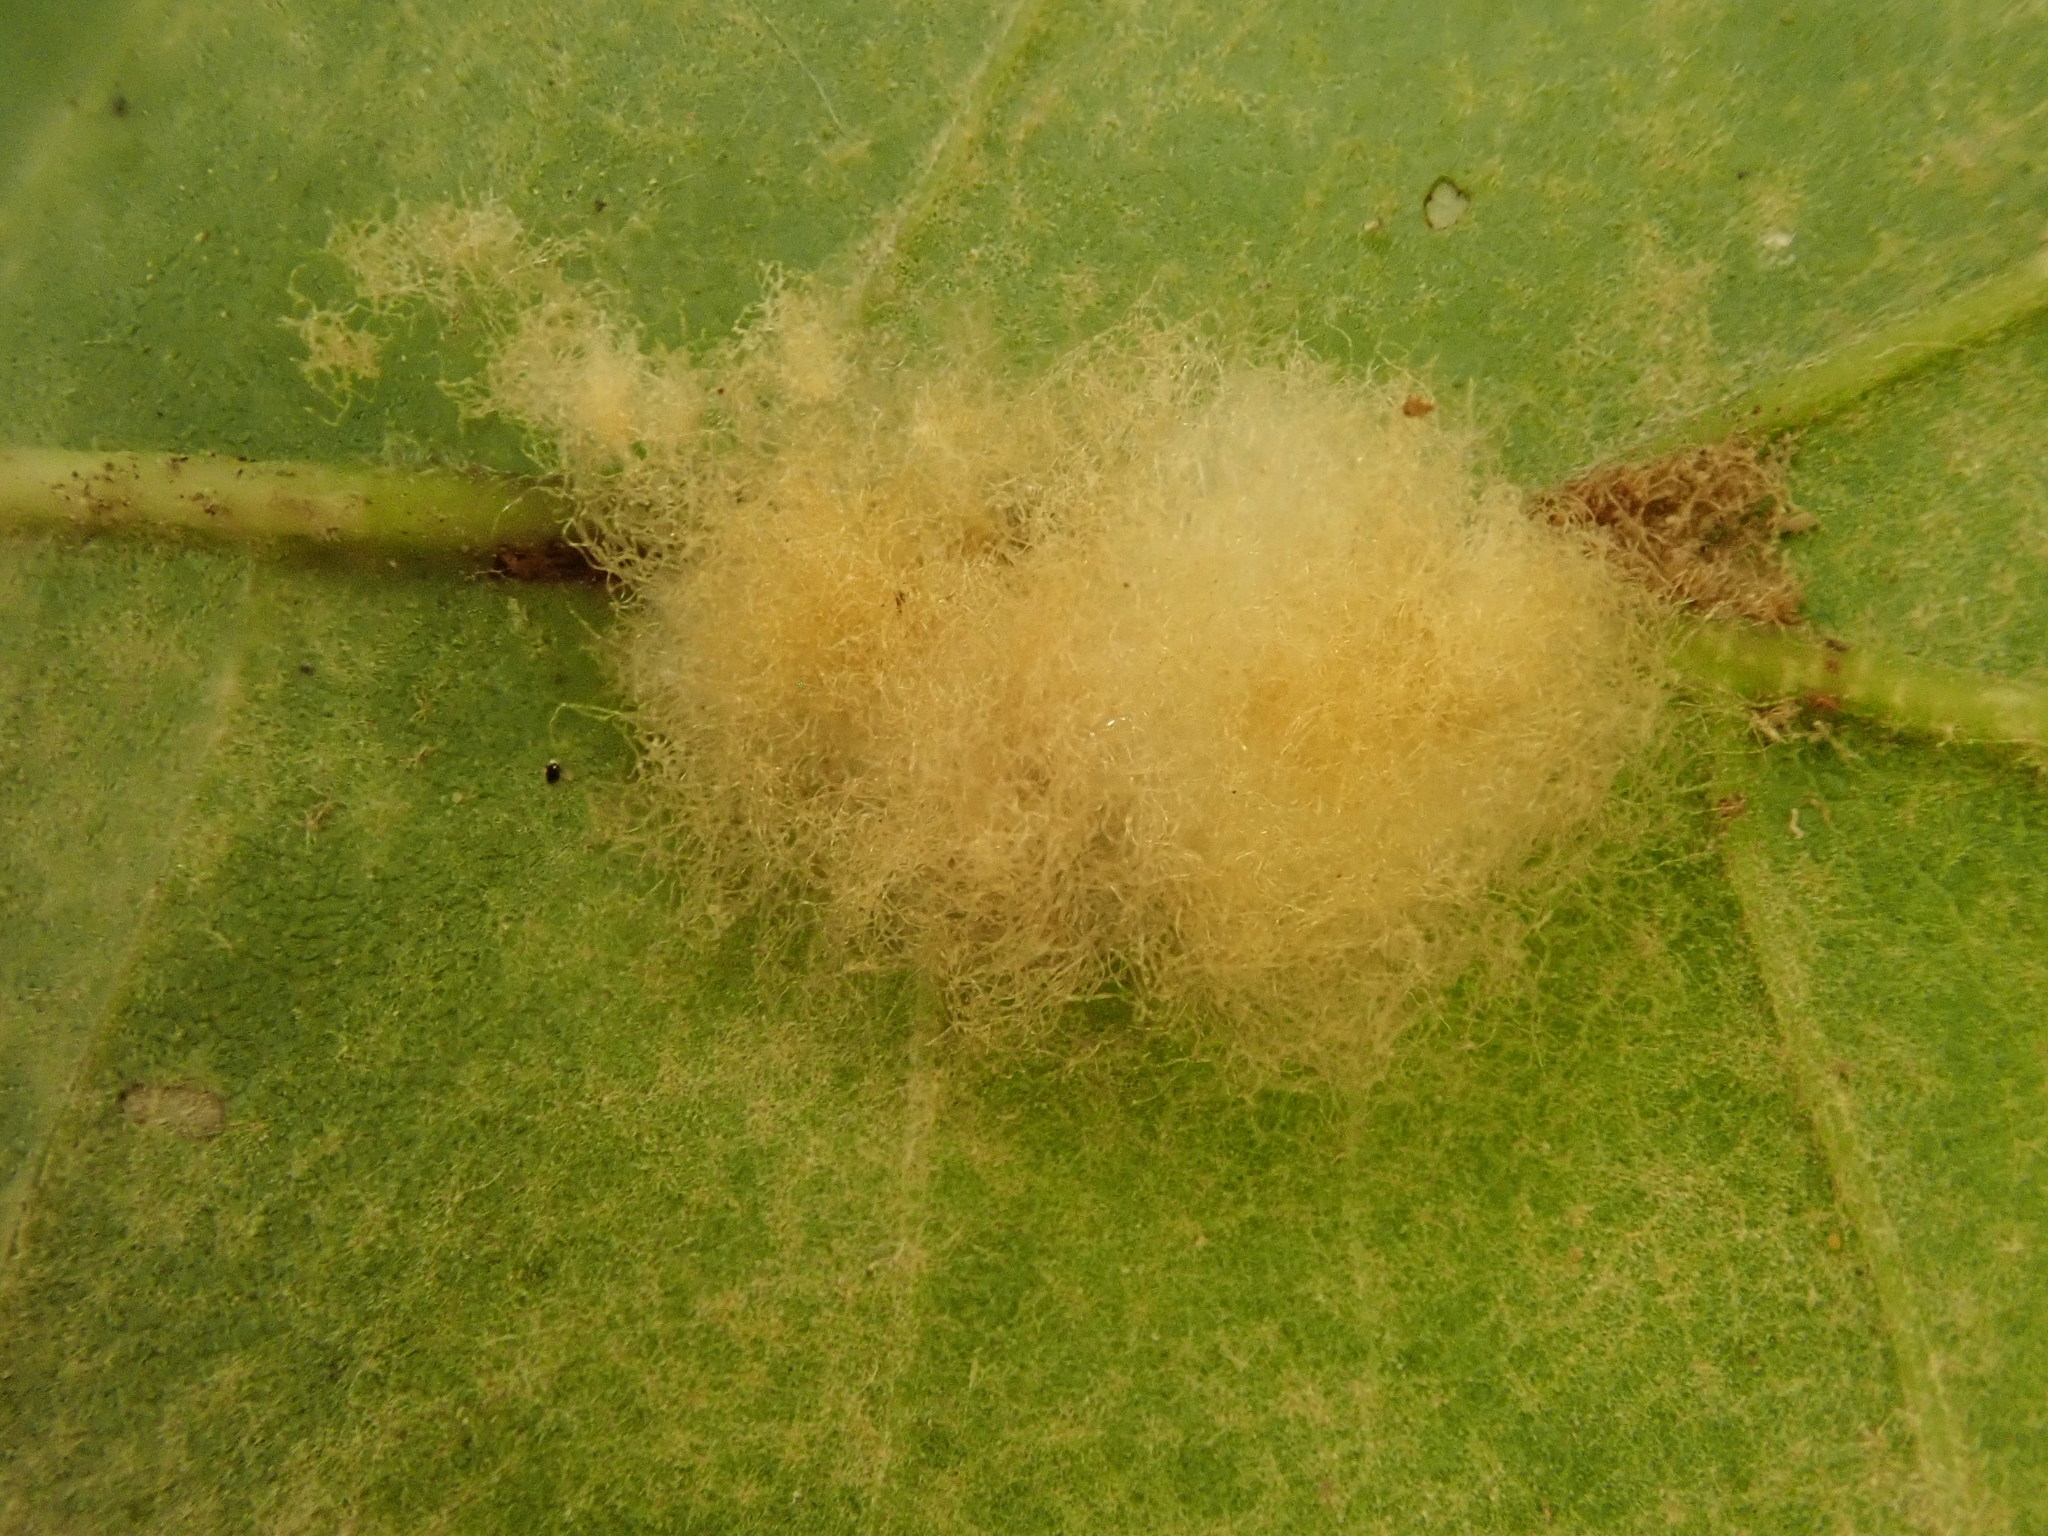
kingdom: Animalia
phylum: Arthropoda
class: Insecta
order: Hymenoptera
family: Cynipidae
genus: Callirhytis
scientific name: Callirhytis
